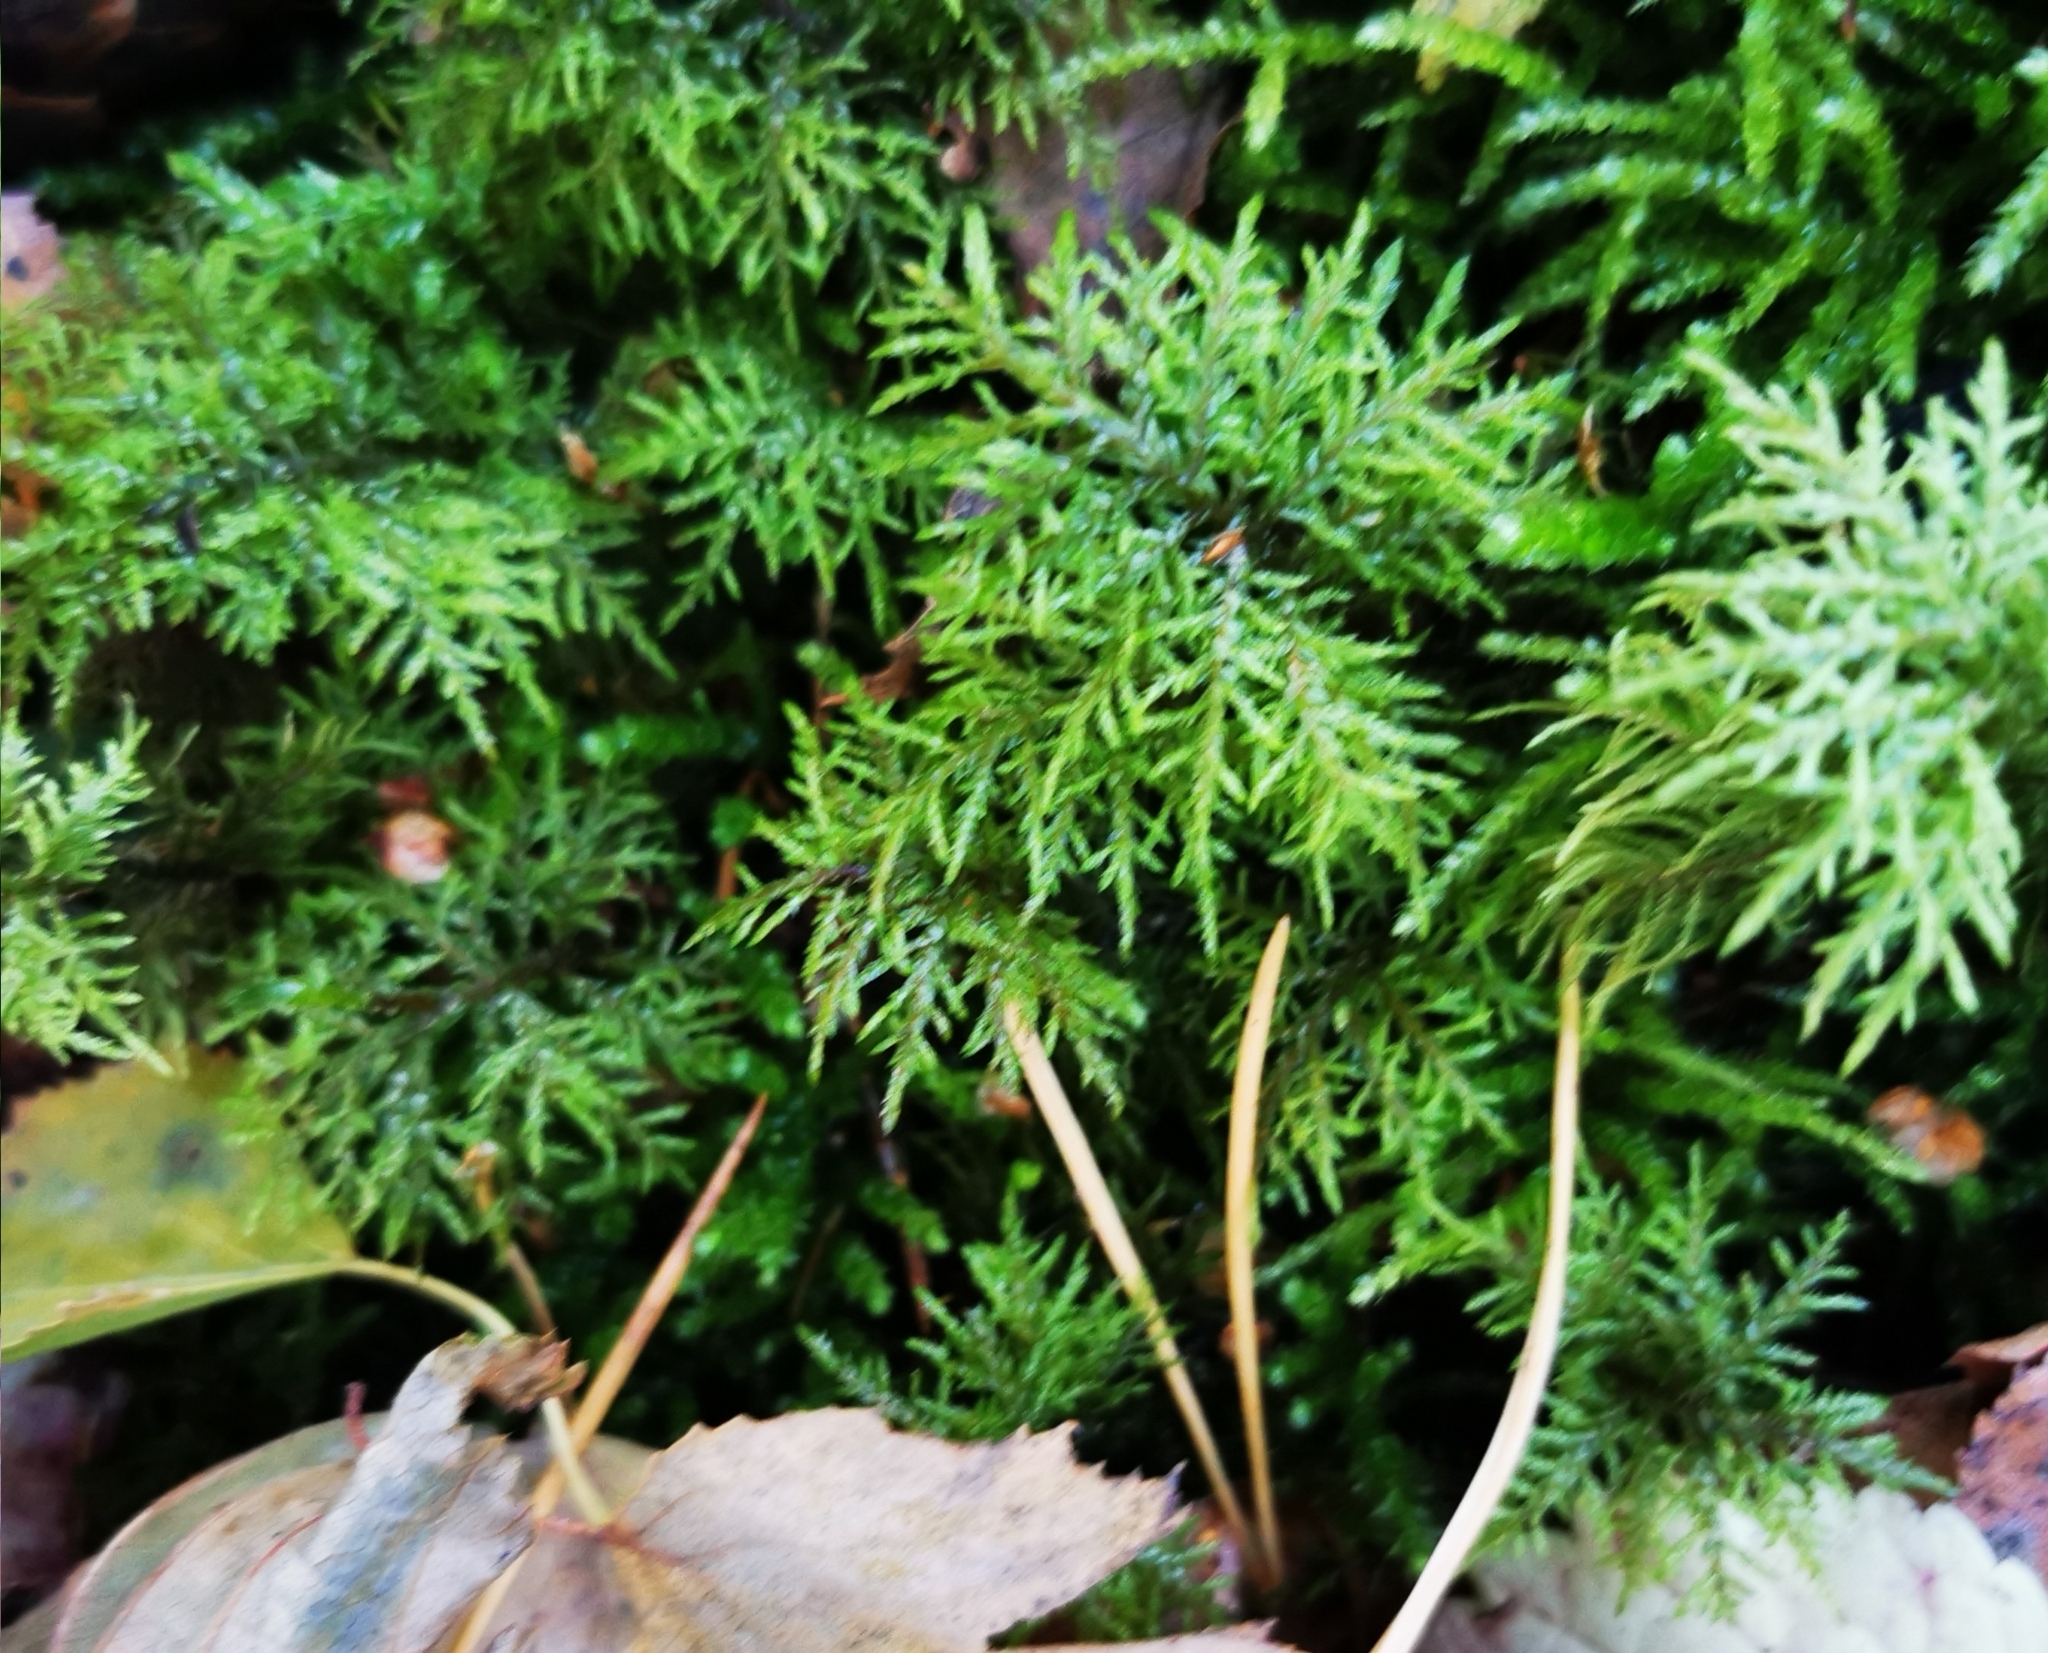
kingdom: Plantae
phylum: Bryophyta
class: Bryopsida
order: Hypnales
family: Hylocomiaceae
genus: Hylocomium
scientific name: Hylocomium splendens
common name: Stairstep moss
